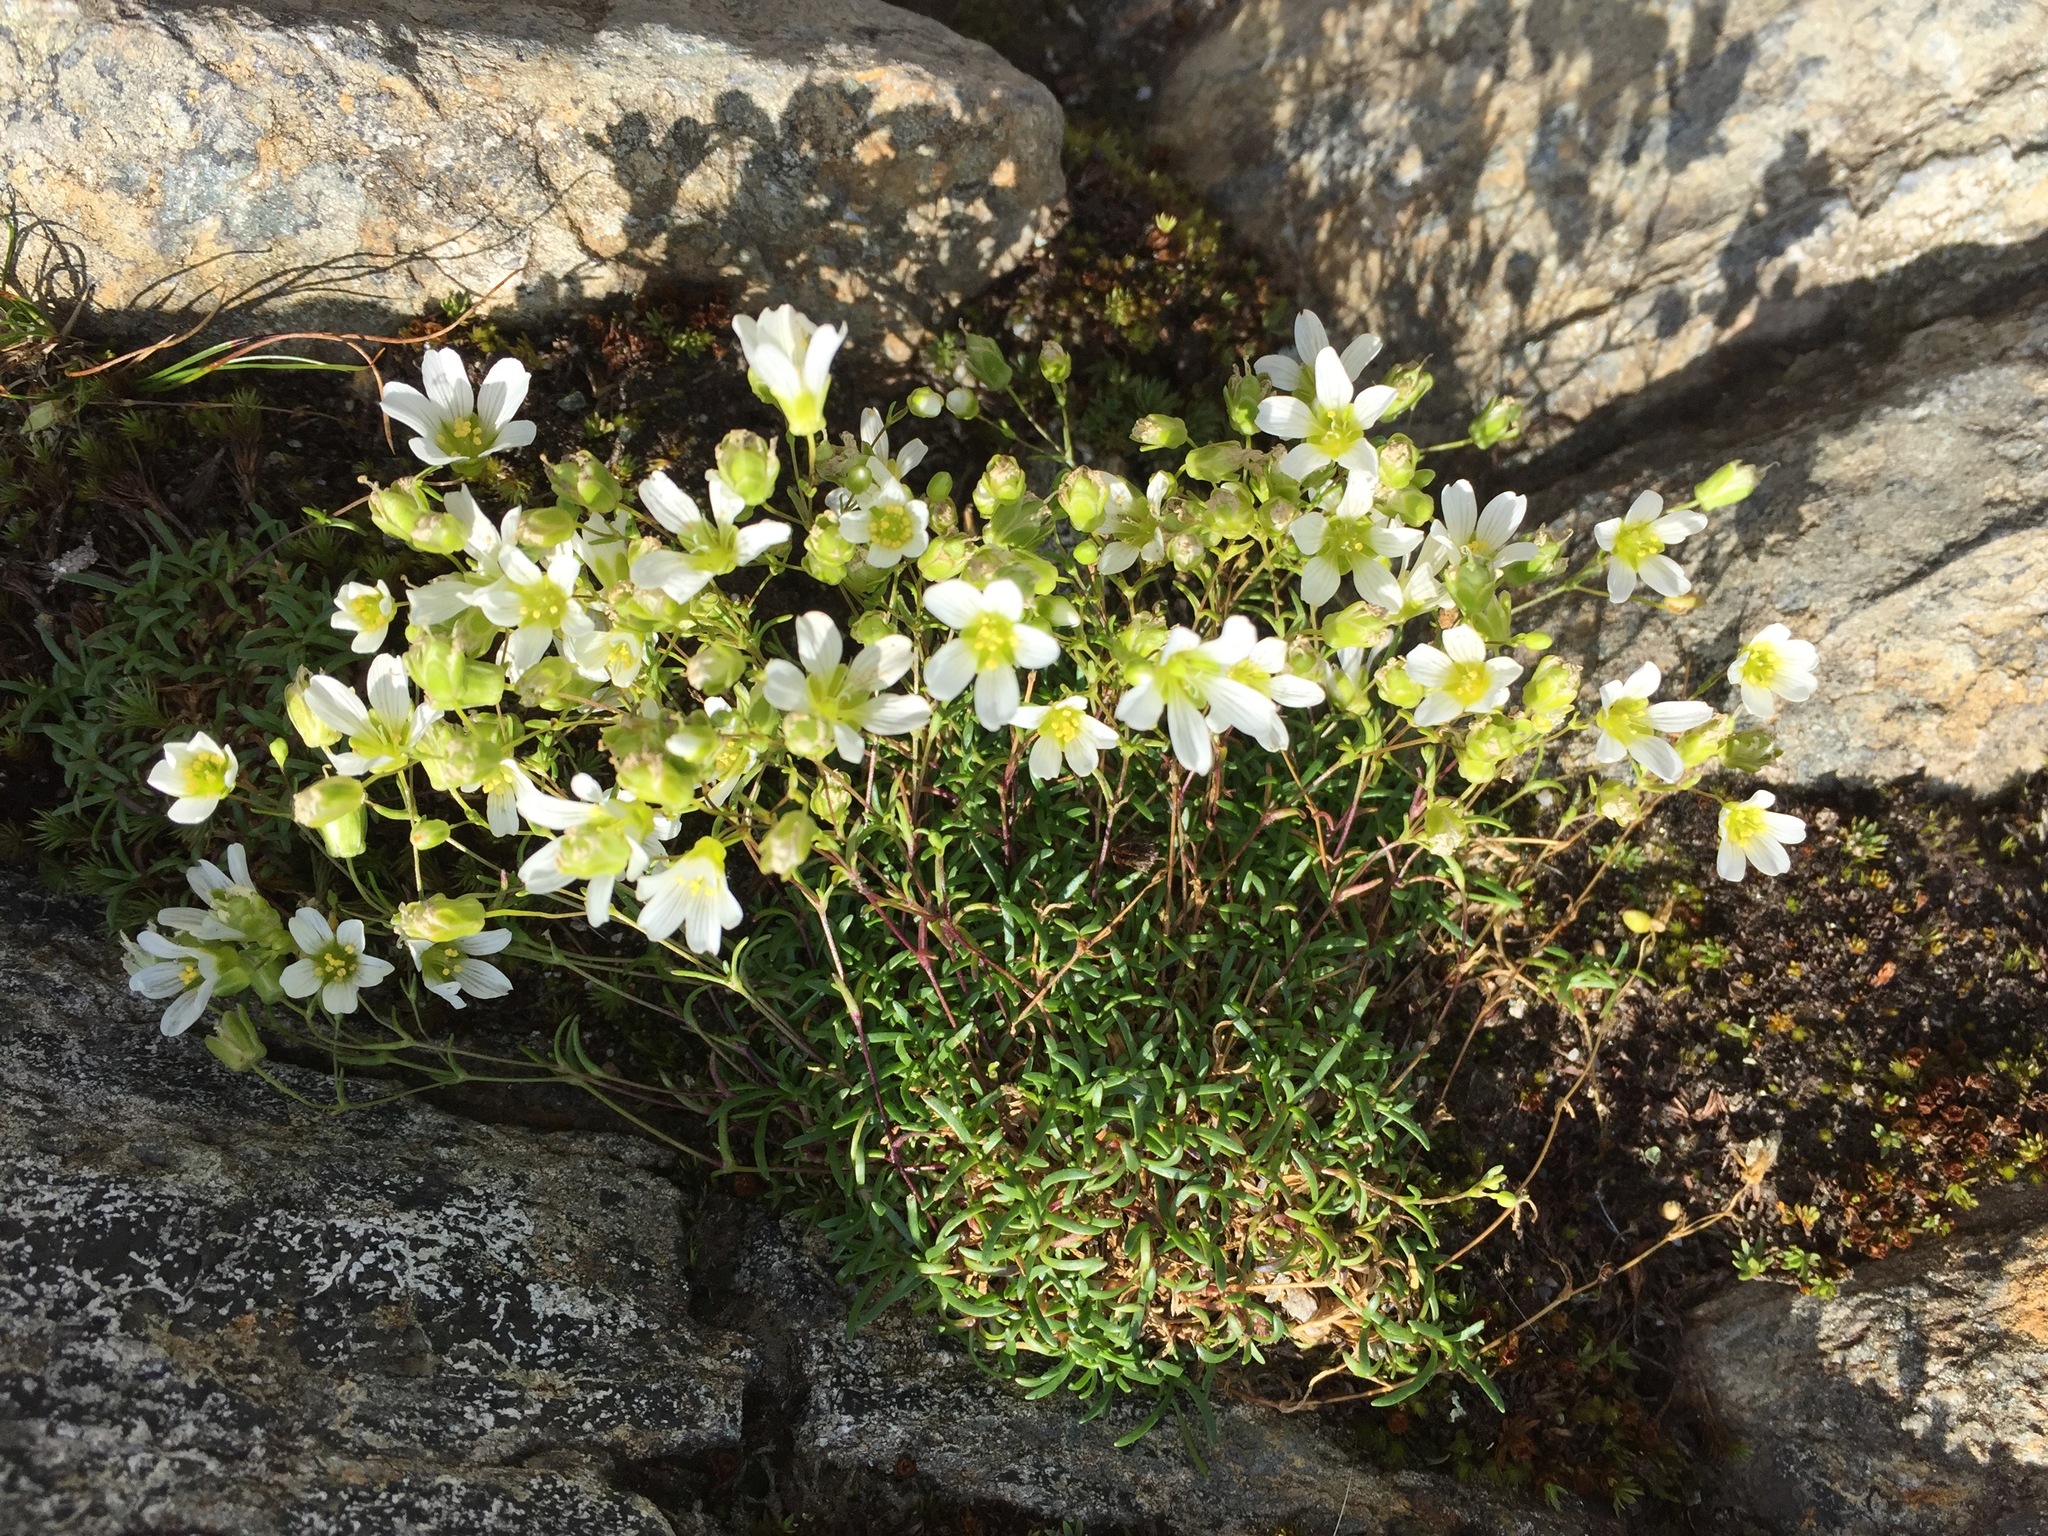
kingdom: Plantae
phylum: Tracheophyta
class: Magnoliopsida
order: Caryophyllales
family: Caryophyllaceae
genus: Geocarpon
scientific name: Geocarpon groenlandicum
